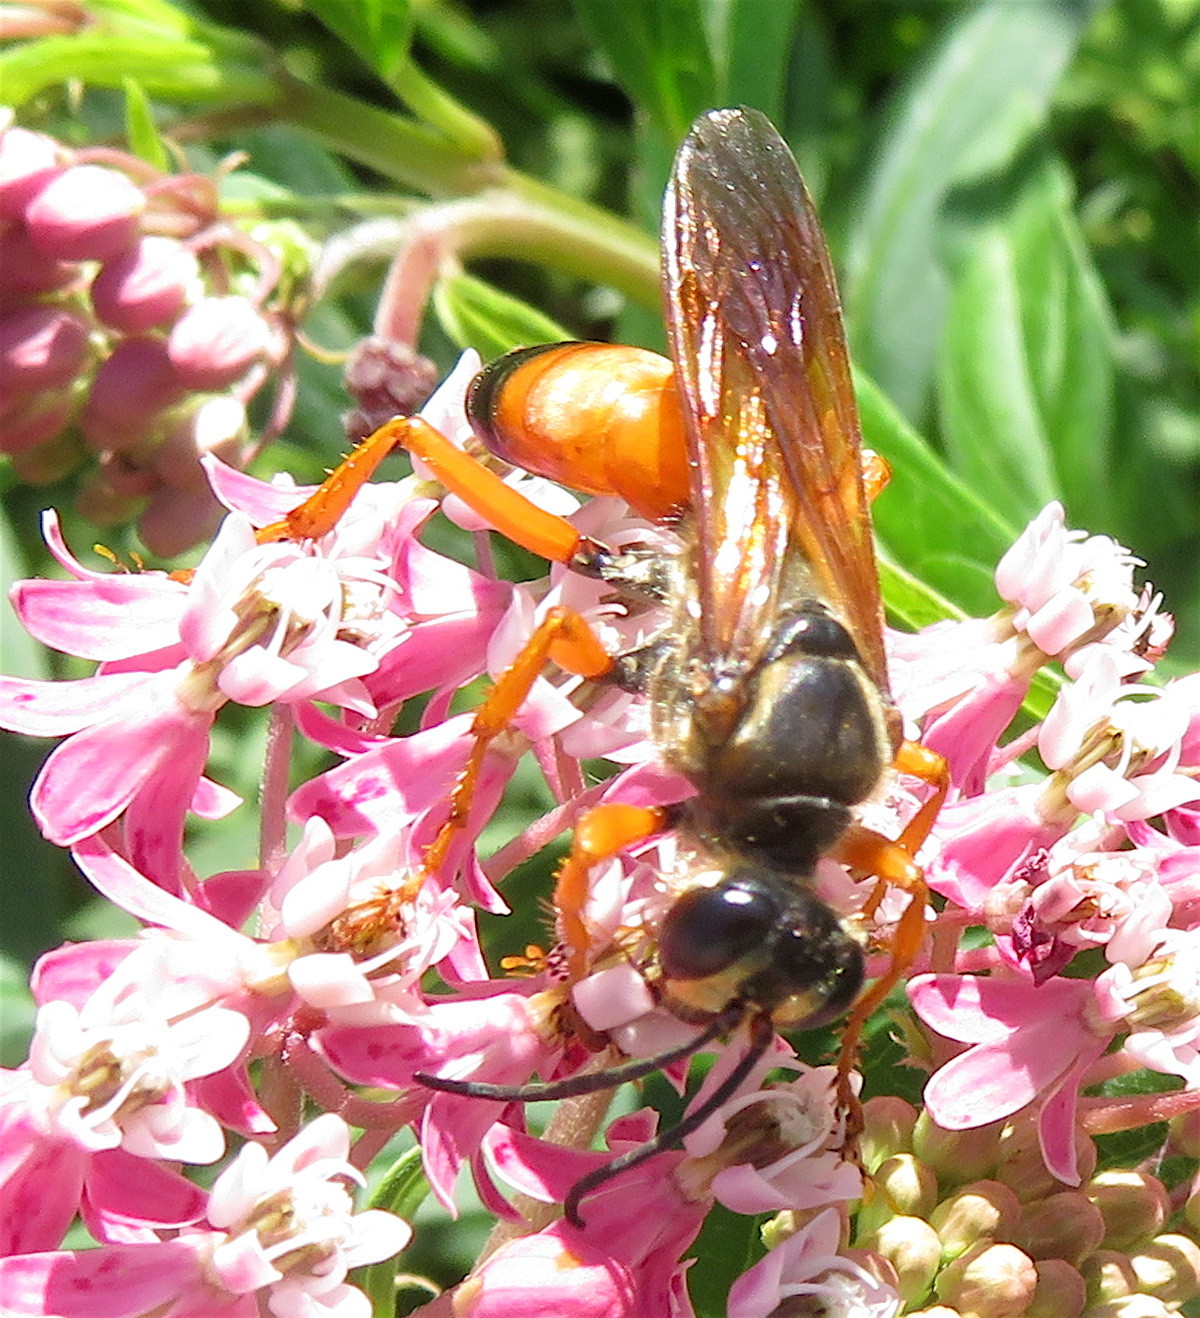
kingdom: Animalia
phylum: Arthropoda
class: Insecta
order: Hymenoptera
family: Sphecidae
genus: Sphex
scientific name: Sphex ichneumoneus
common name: Great golden digger wasp
